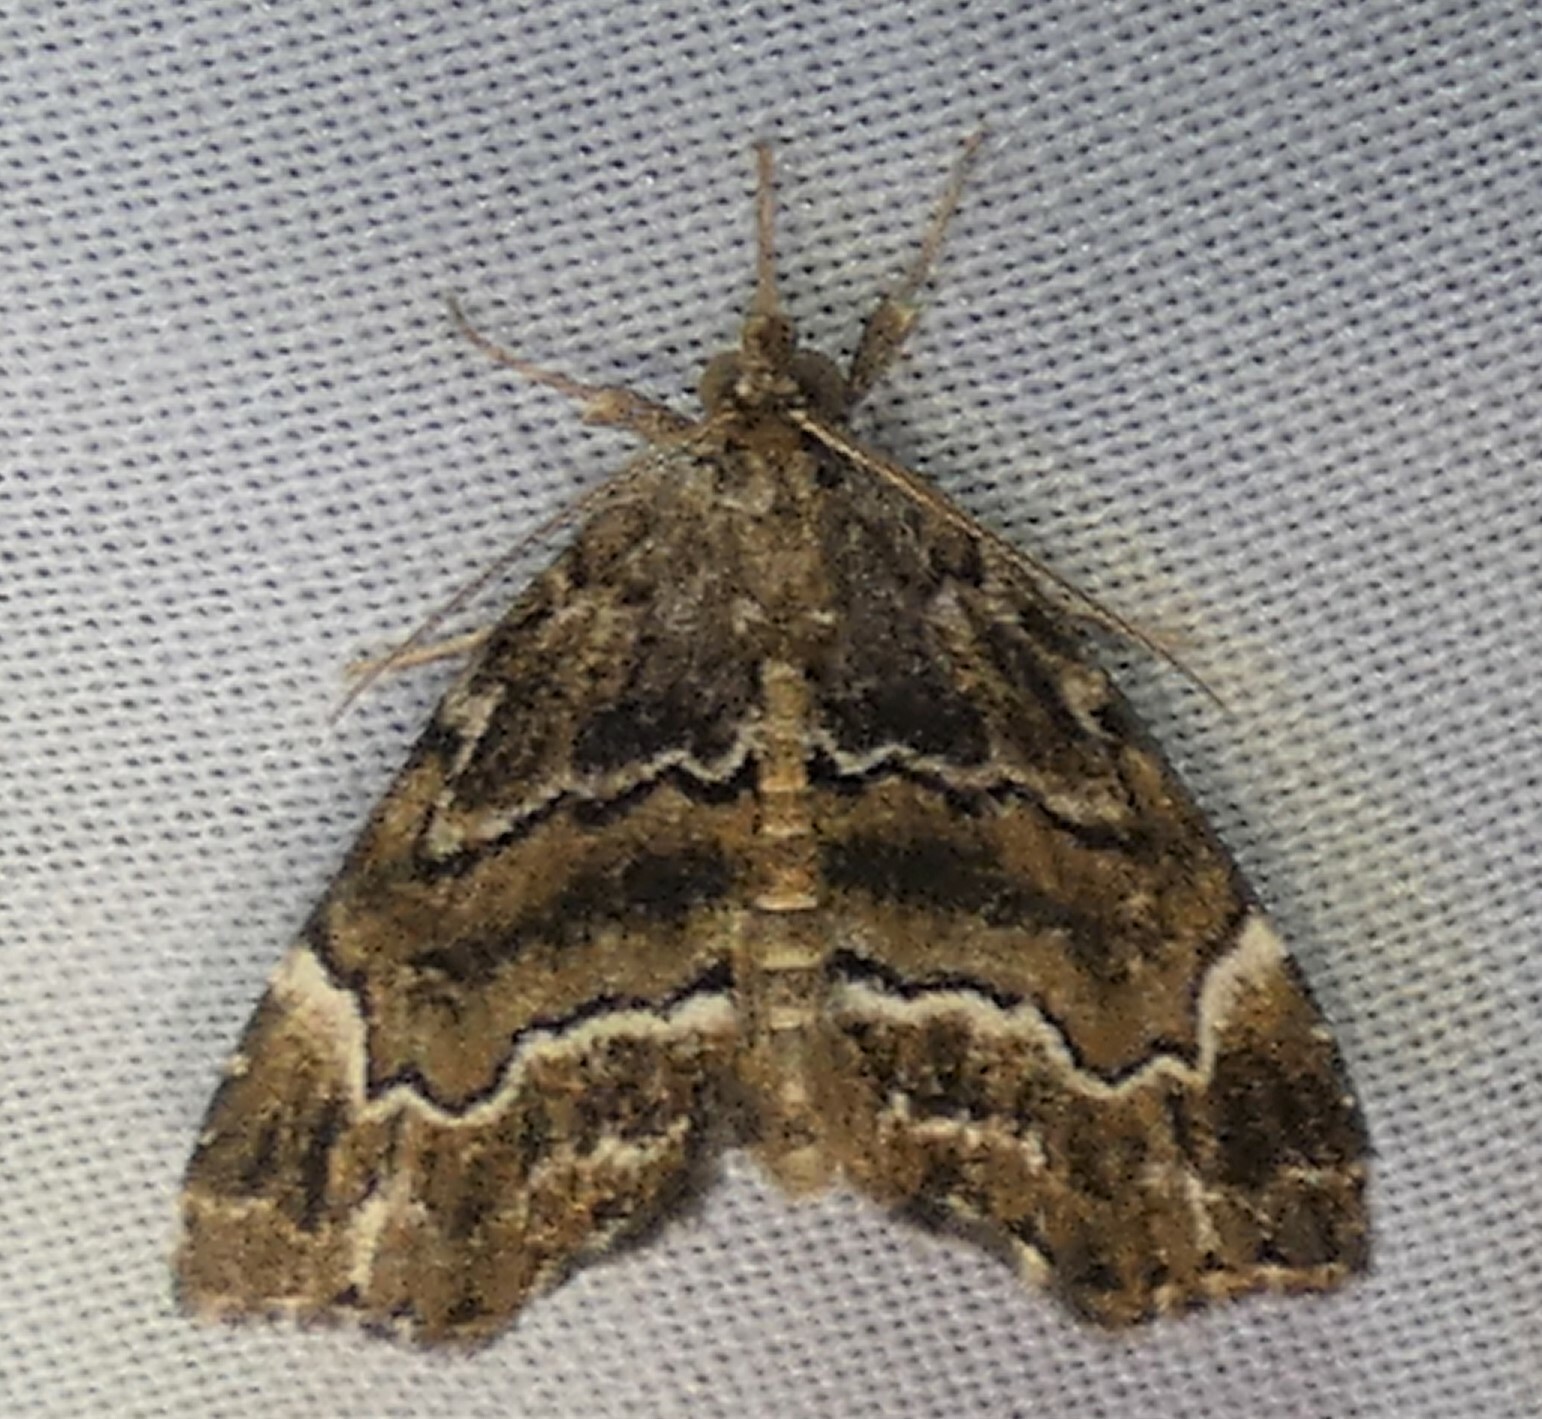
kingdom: Animalia
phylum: Arthropoda
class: Insecta
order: Lepidoptera
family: Erebidae
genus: Cutina
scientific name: Cutina arcuata
